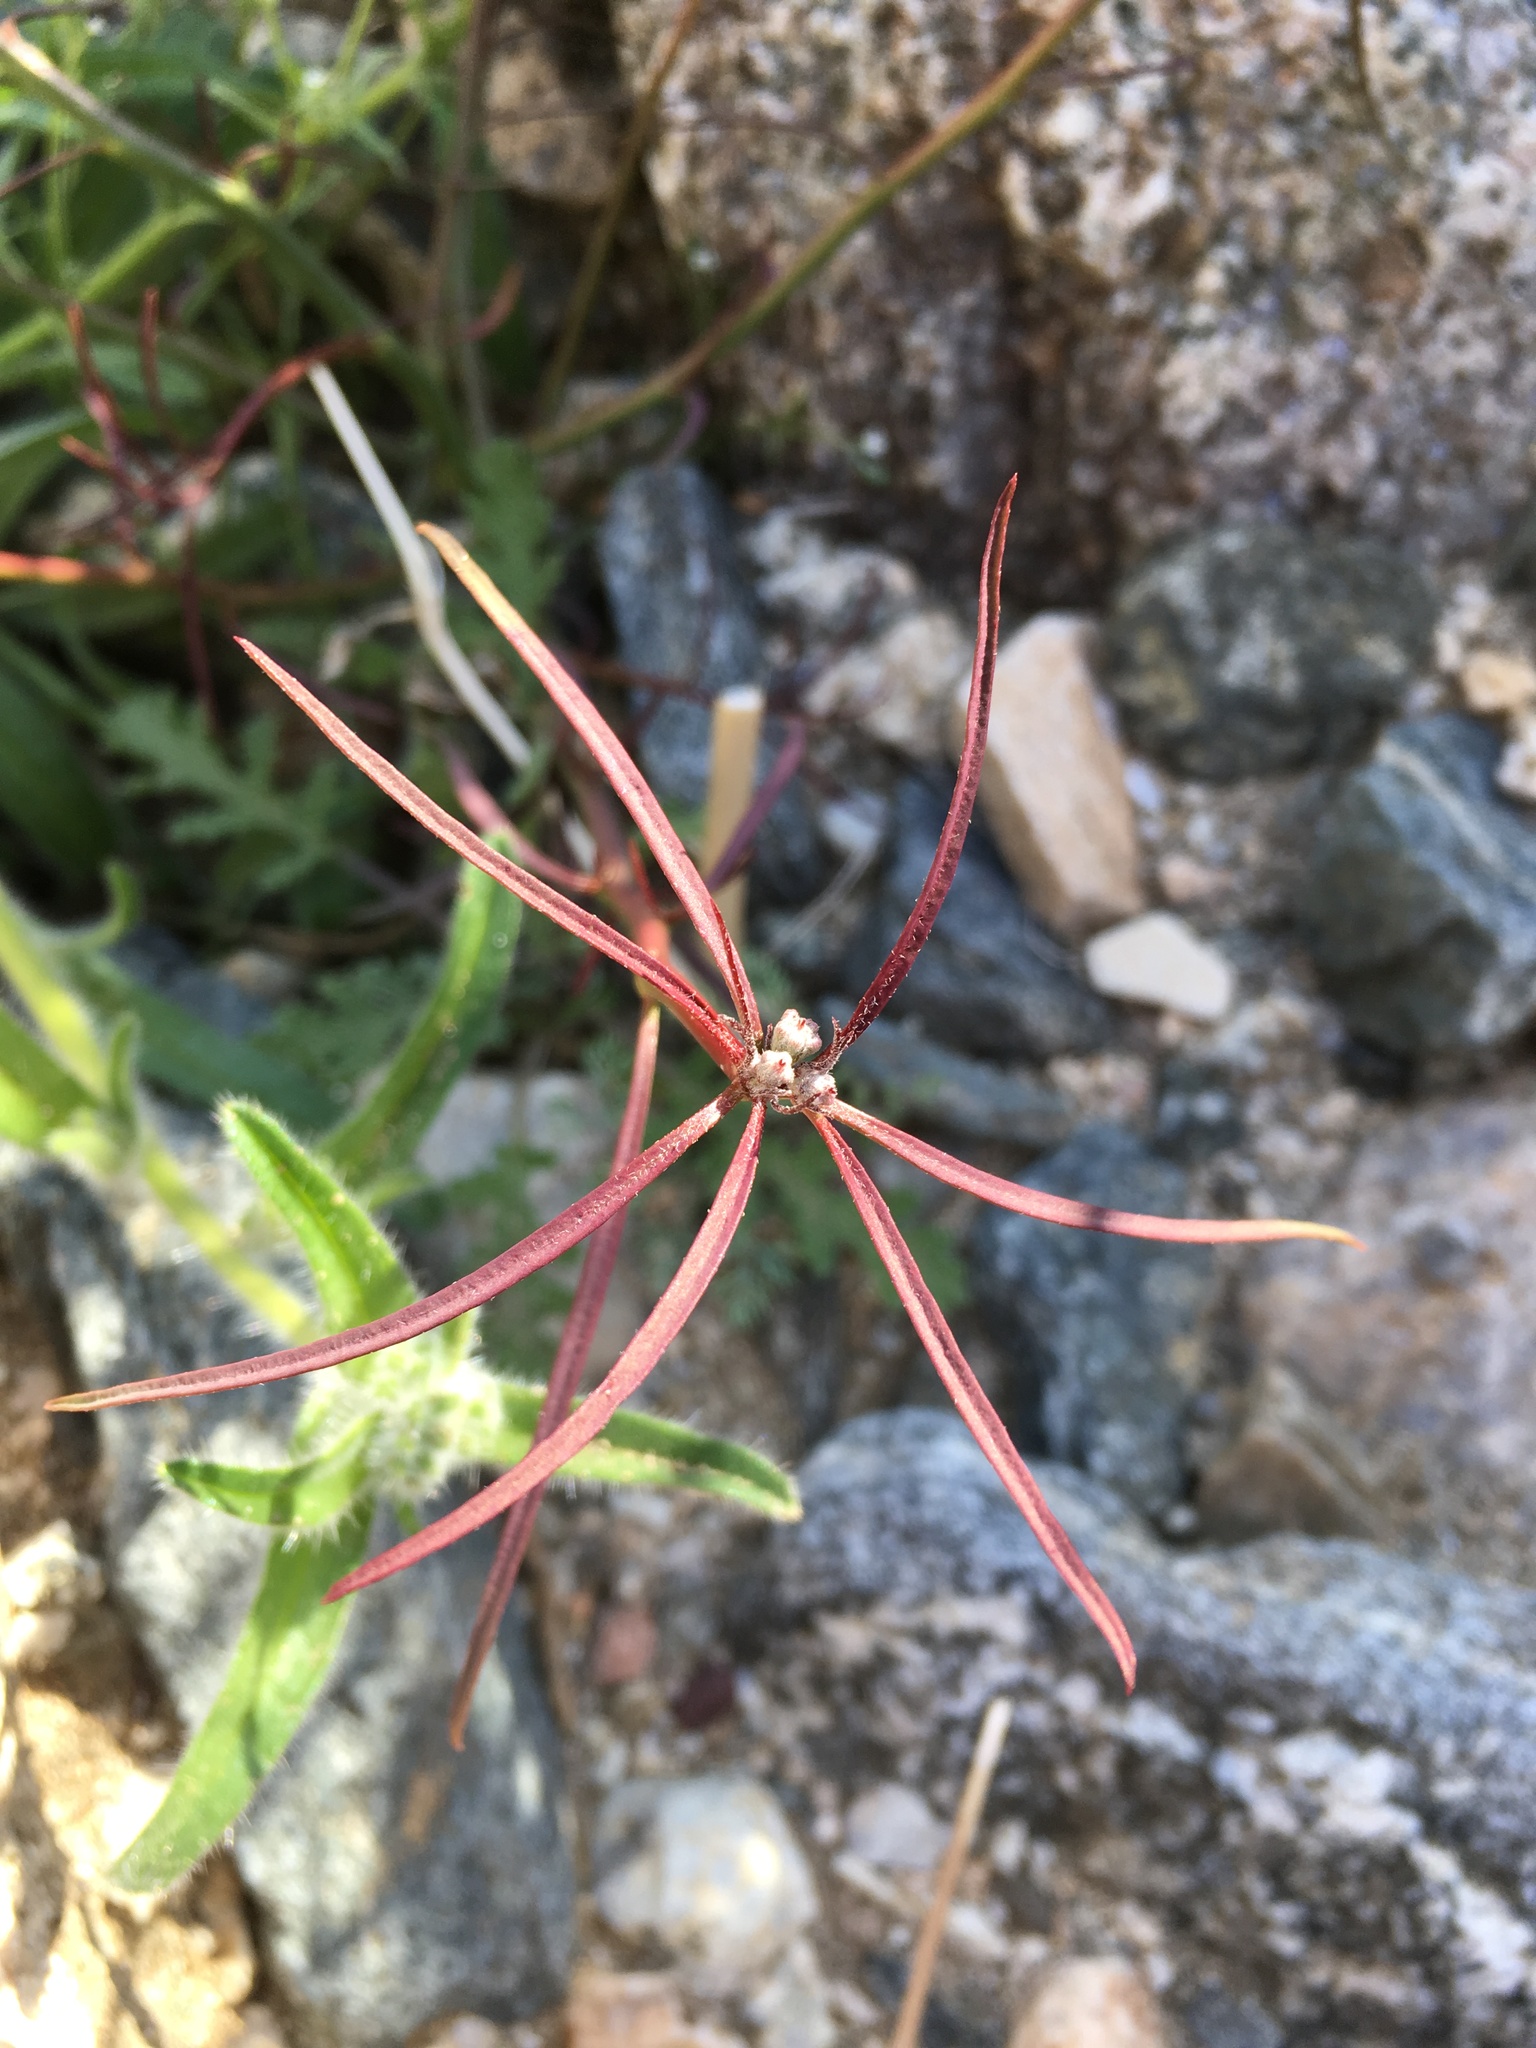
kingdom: Plantae
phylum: Tracheophyta
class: Magnoliopsida
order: Malpighiales
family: Euphorbiaceae
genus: Euphorbia
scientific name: Euphorbia eriantha
